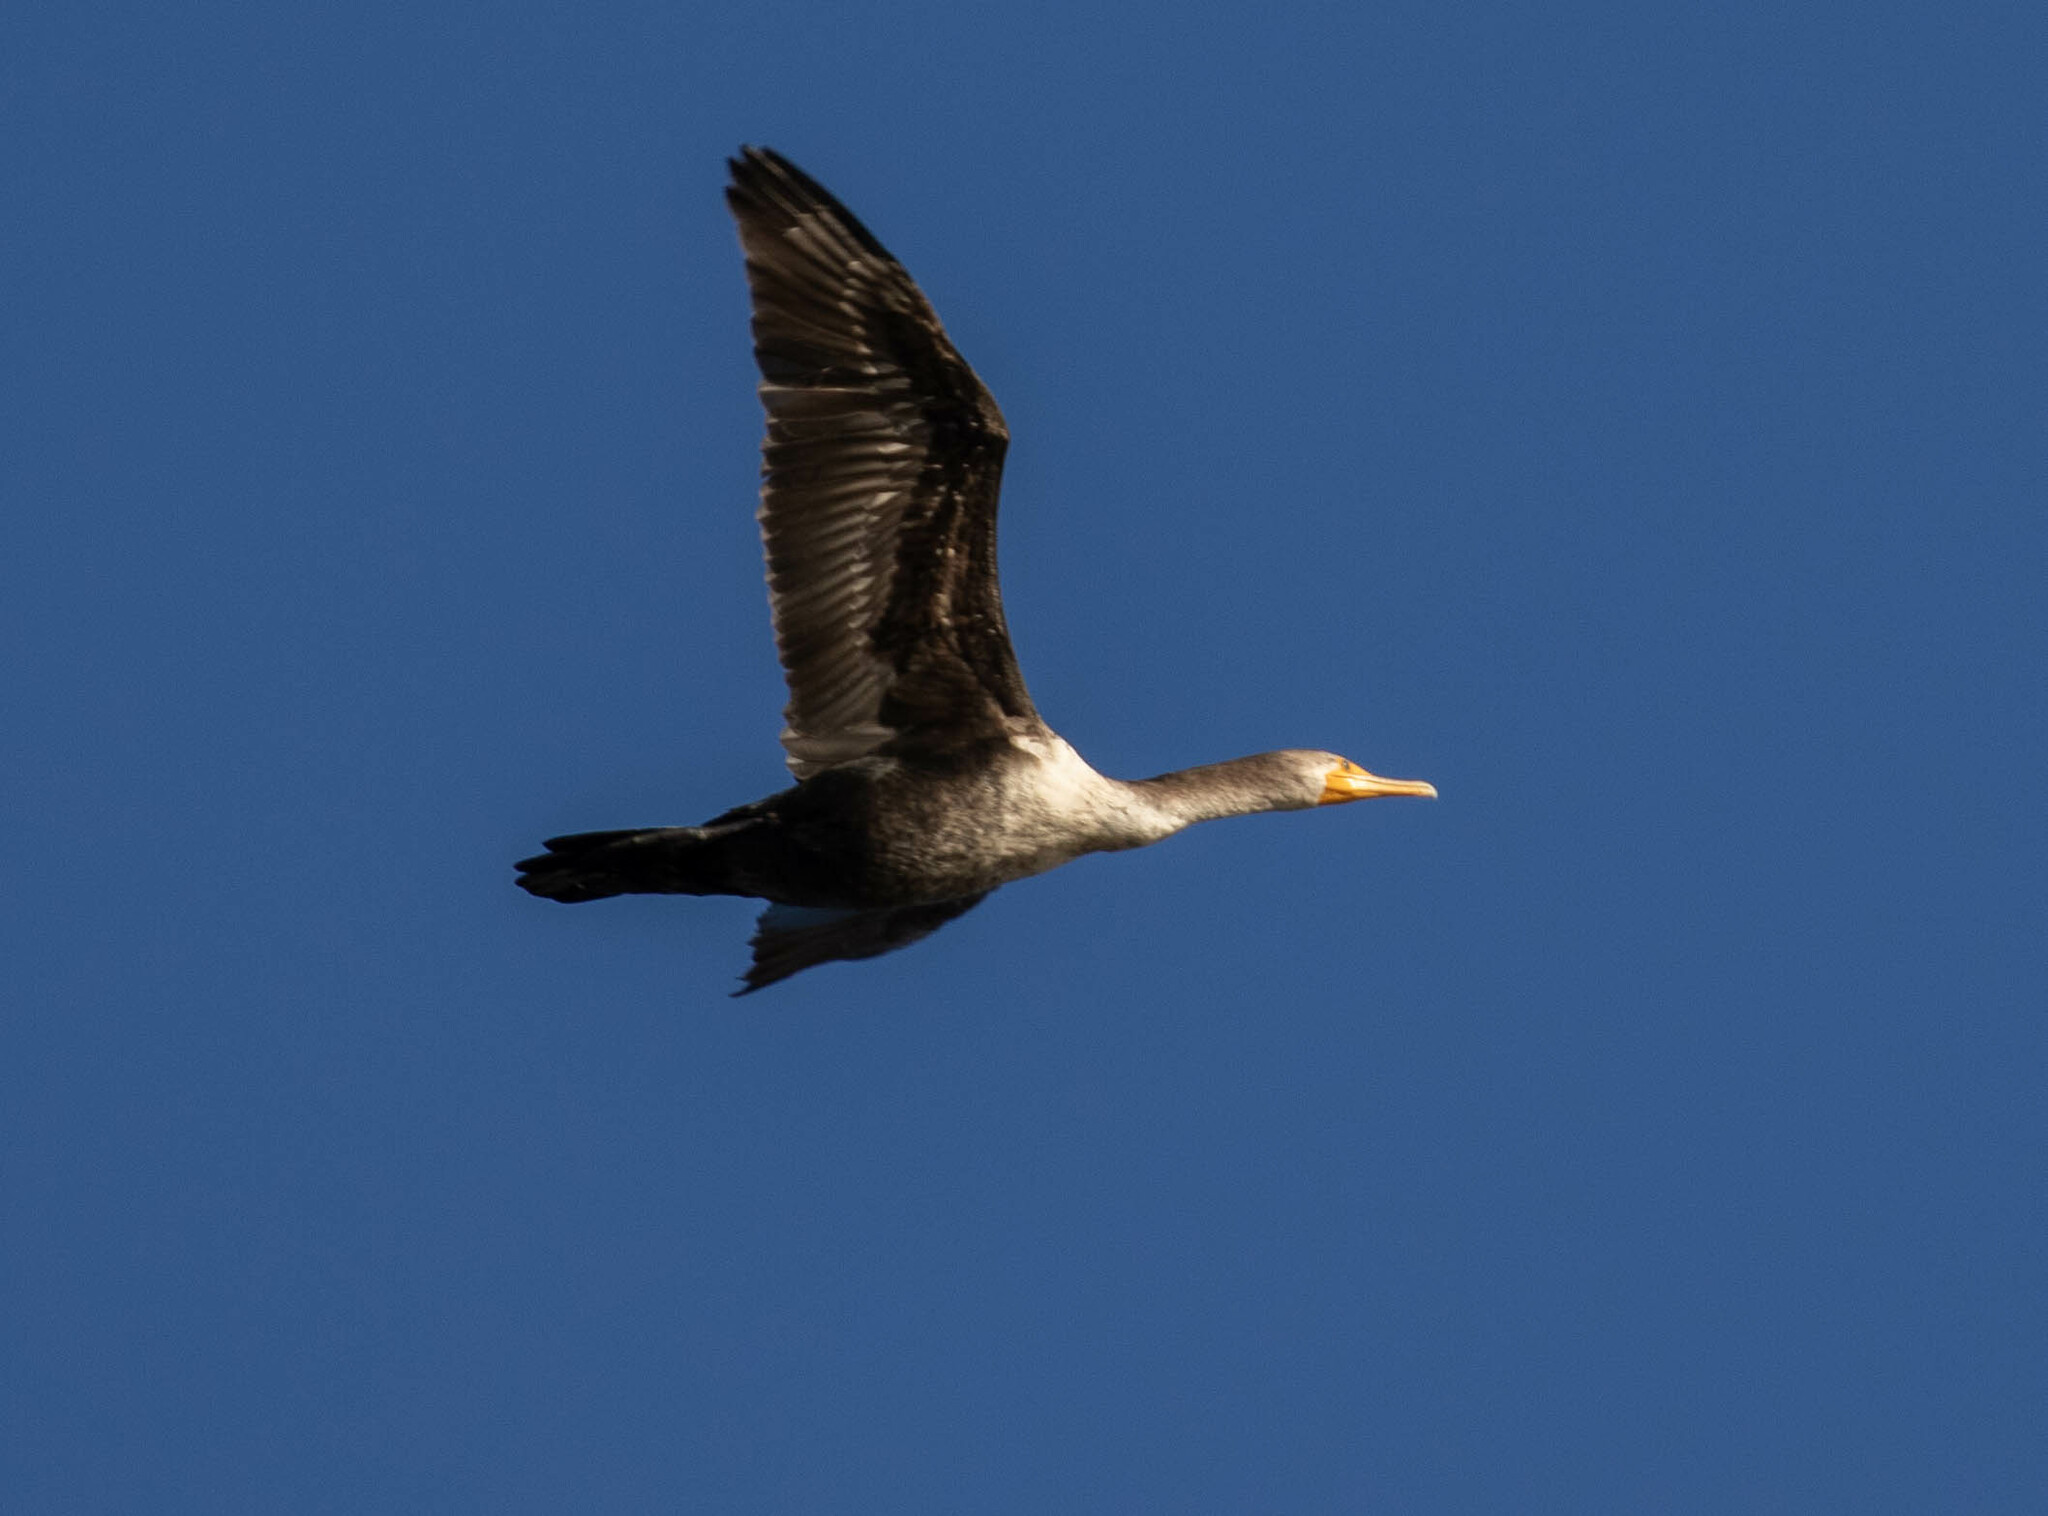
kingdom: Animalia
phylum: Chordata
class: Aves
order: Suliformes
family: Phalacrocoracidae
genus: Phalacrocorax
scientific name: Phalacrocorax auritus
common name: Double-crested cormorant
